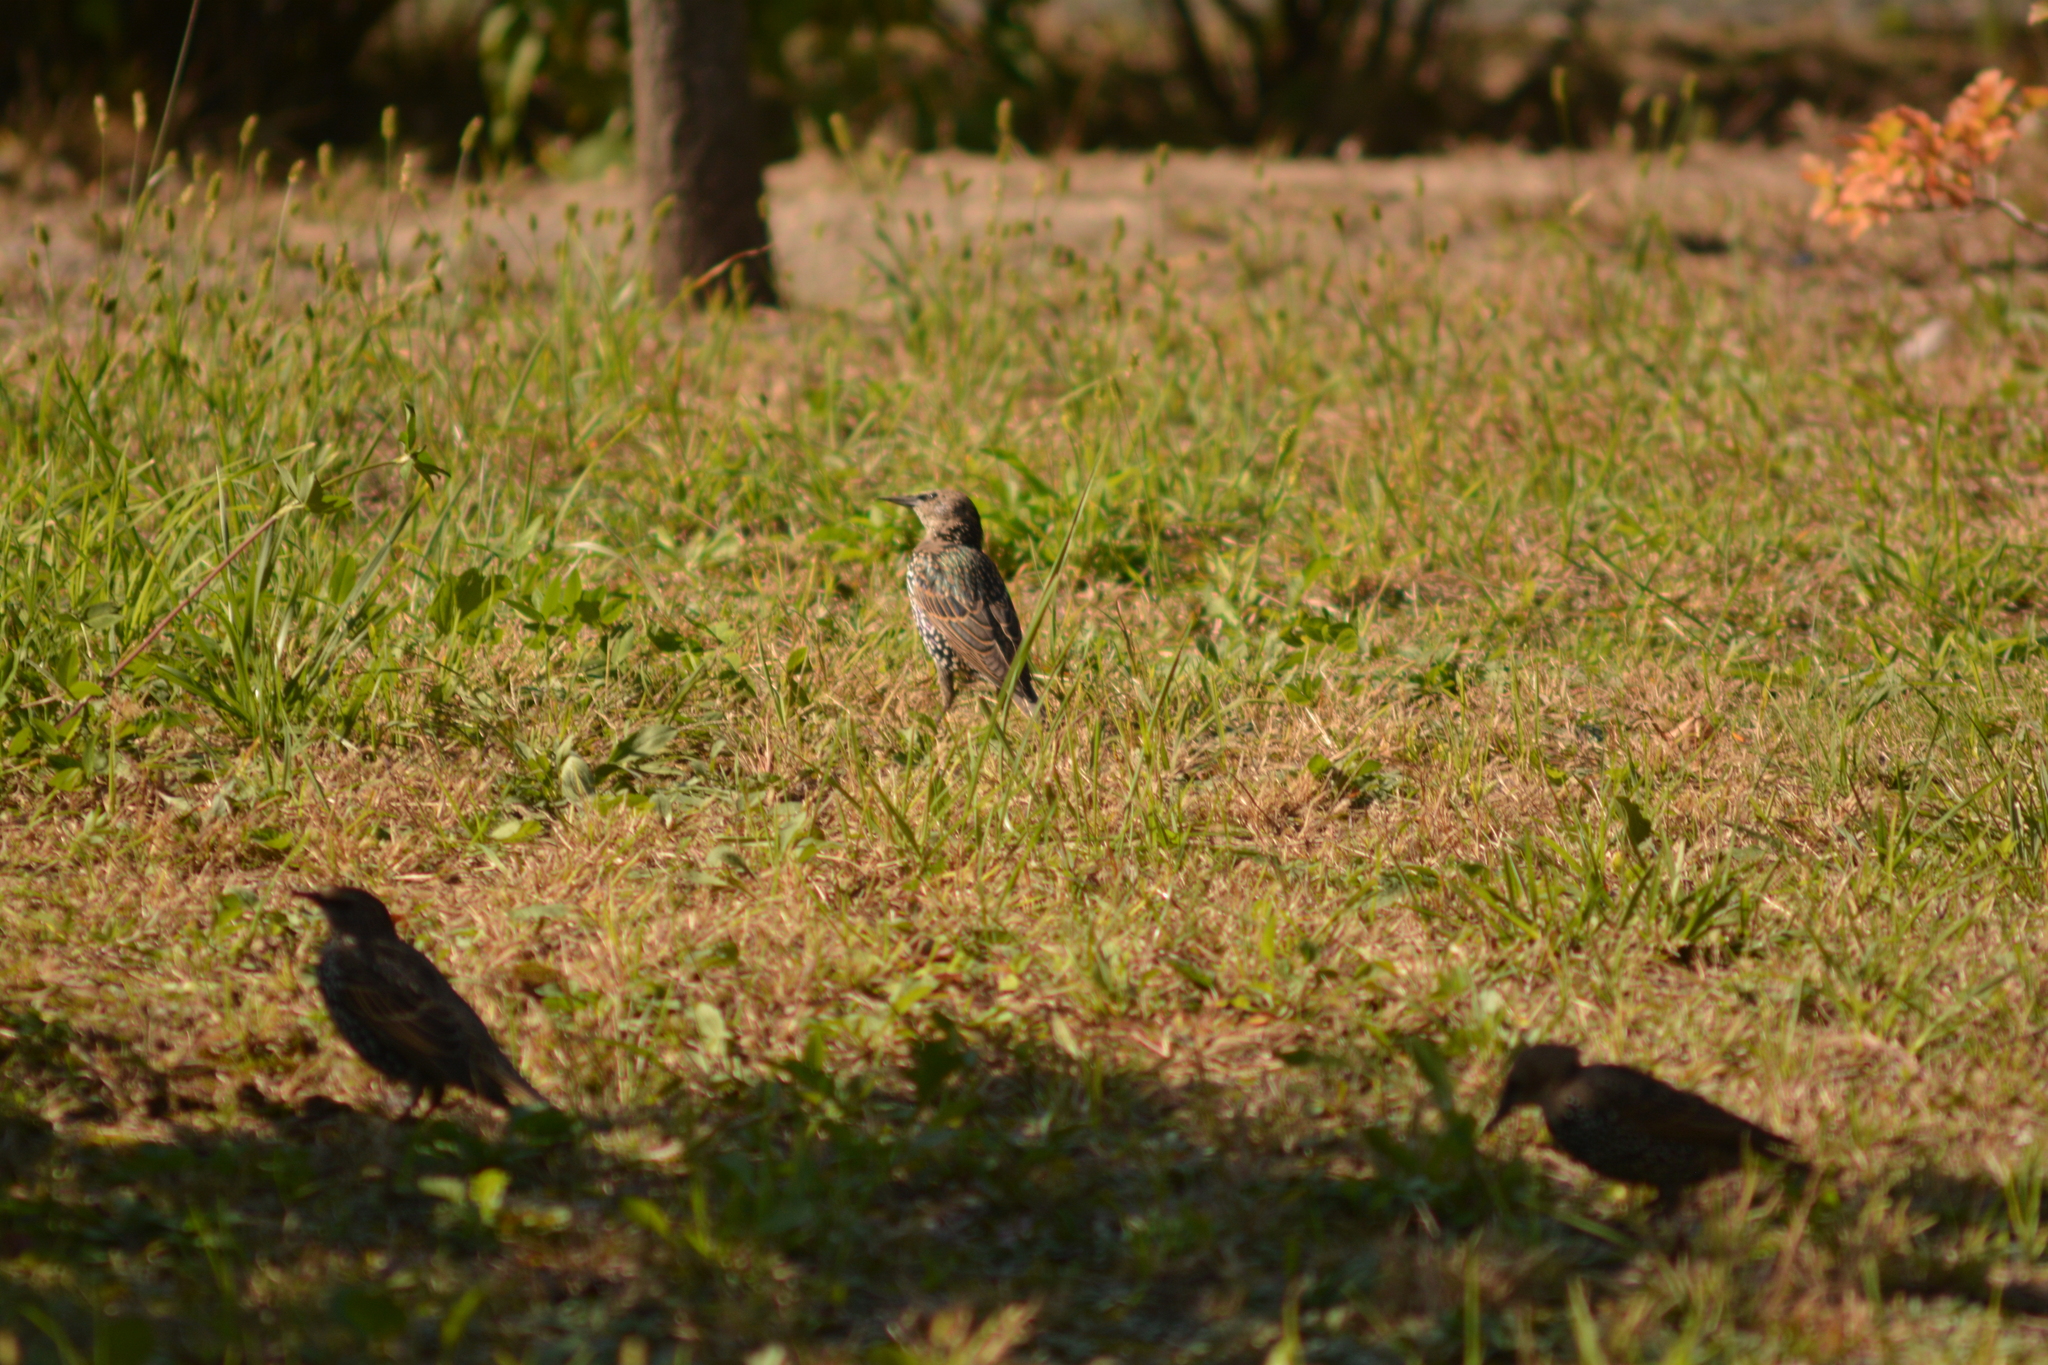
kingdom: Animalia
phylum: Chordata
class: Aves
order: Passeriformes
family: Sturnidae
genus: Sturnus
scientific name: Sturnus vulgaris
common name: Common starling
